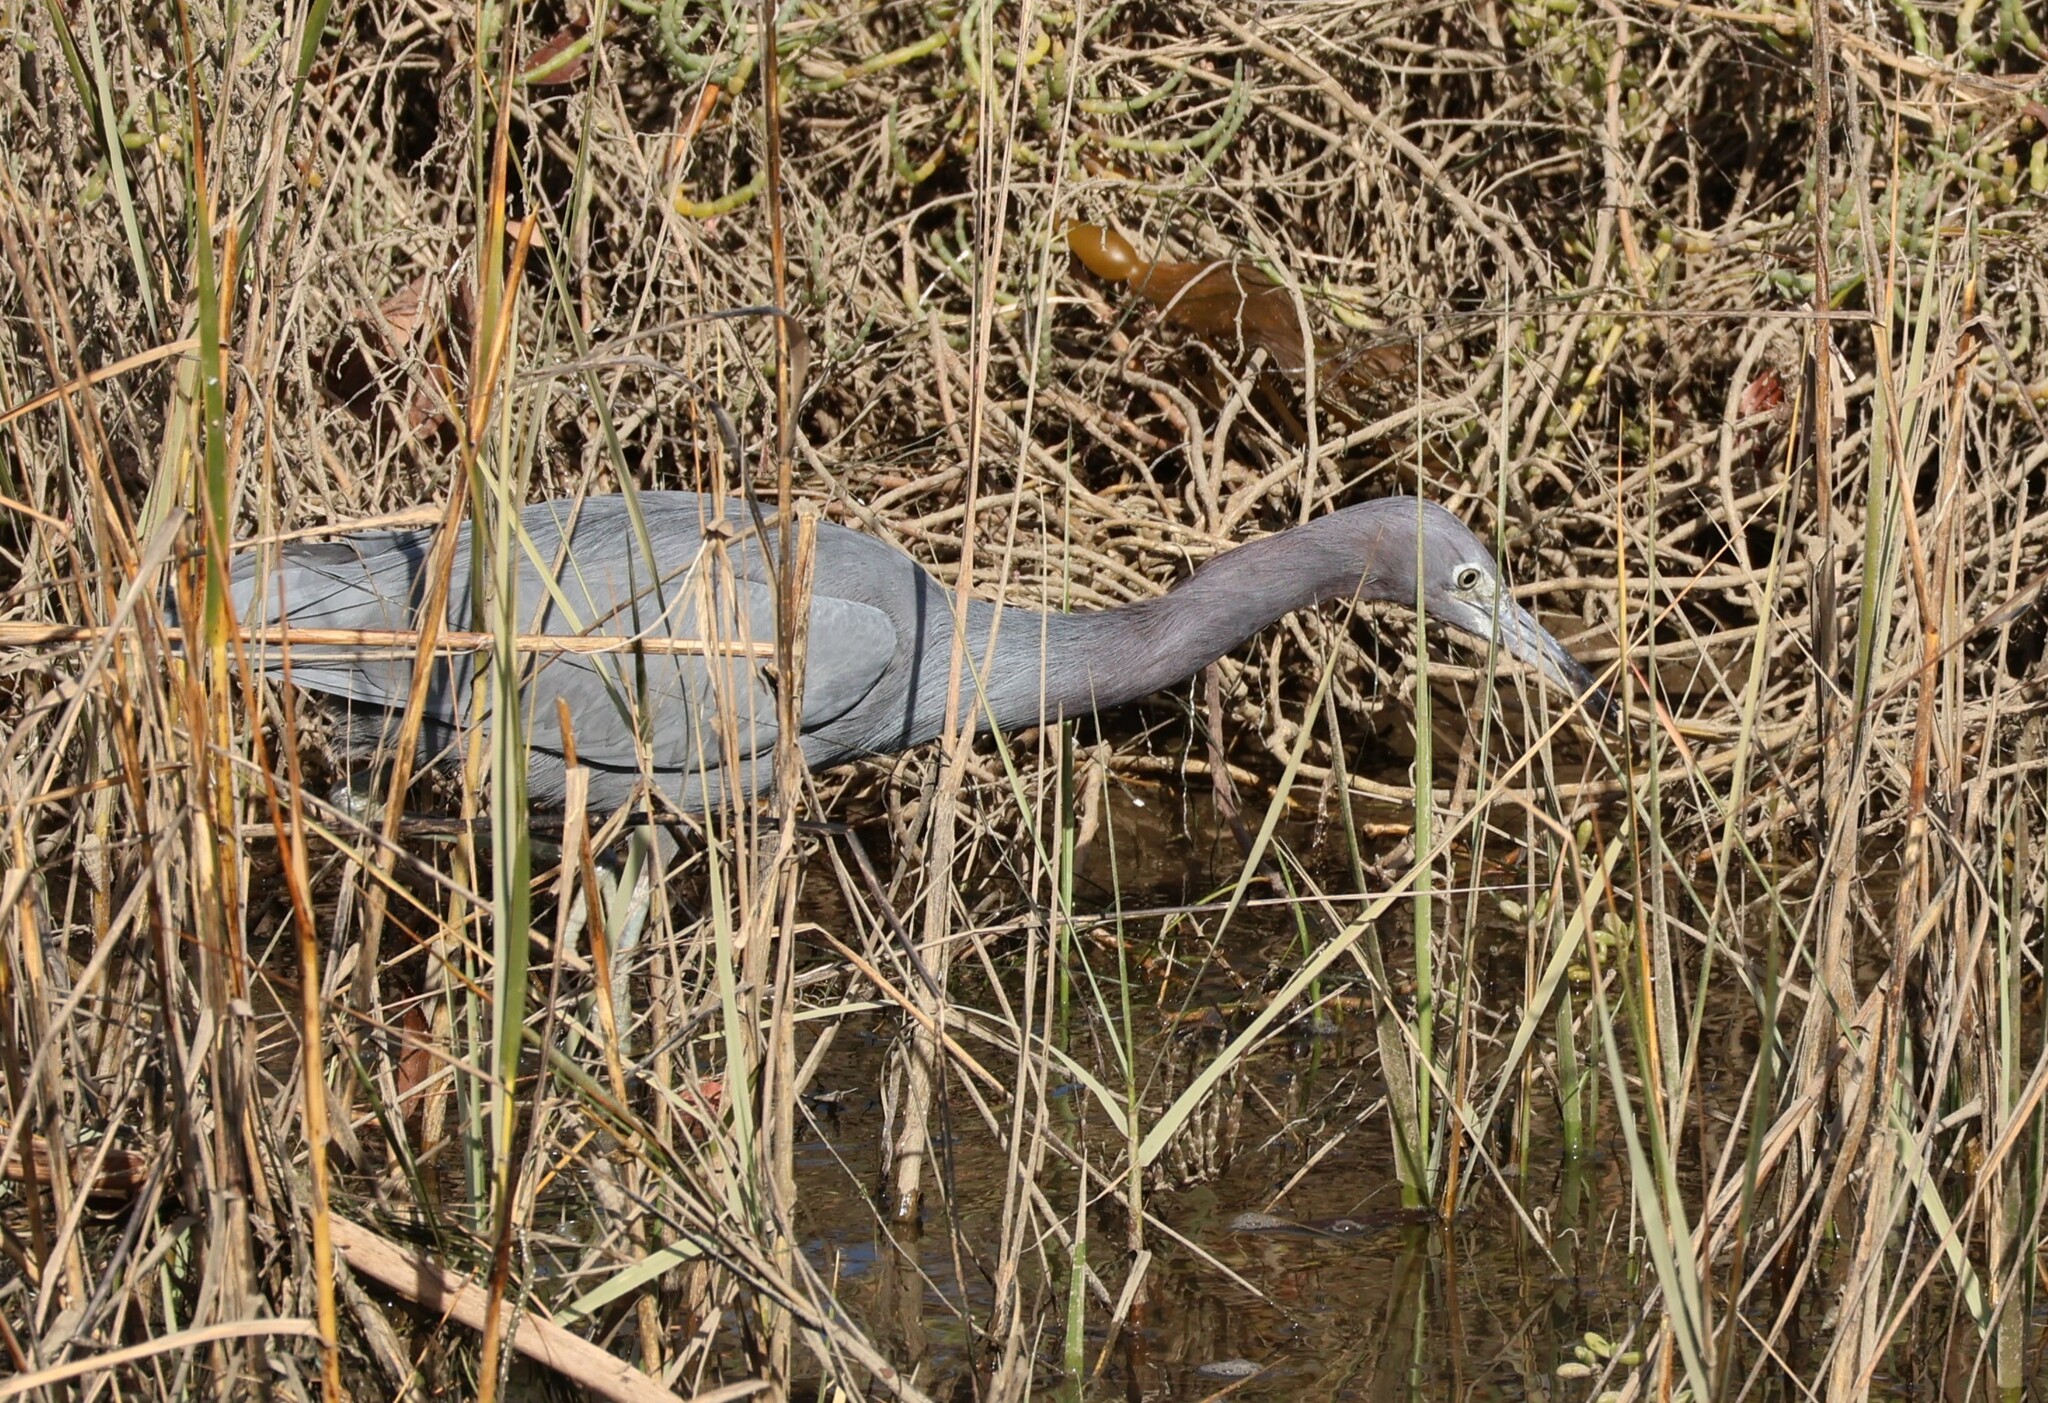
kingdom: Animalia
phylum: Chordata
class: Aves
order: Pelecaniformes
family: Ardeidae
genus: Egretta
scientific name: Egretta caerulea
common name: Little blue heron
